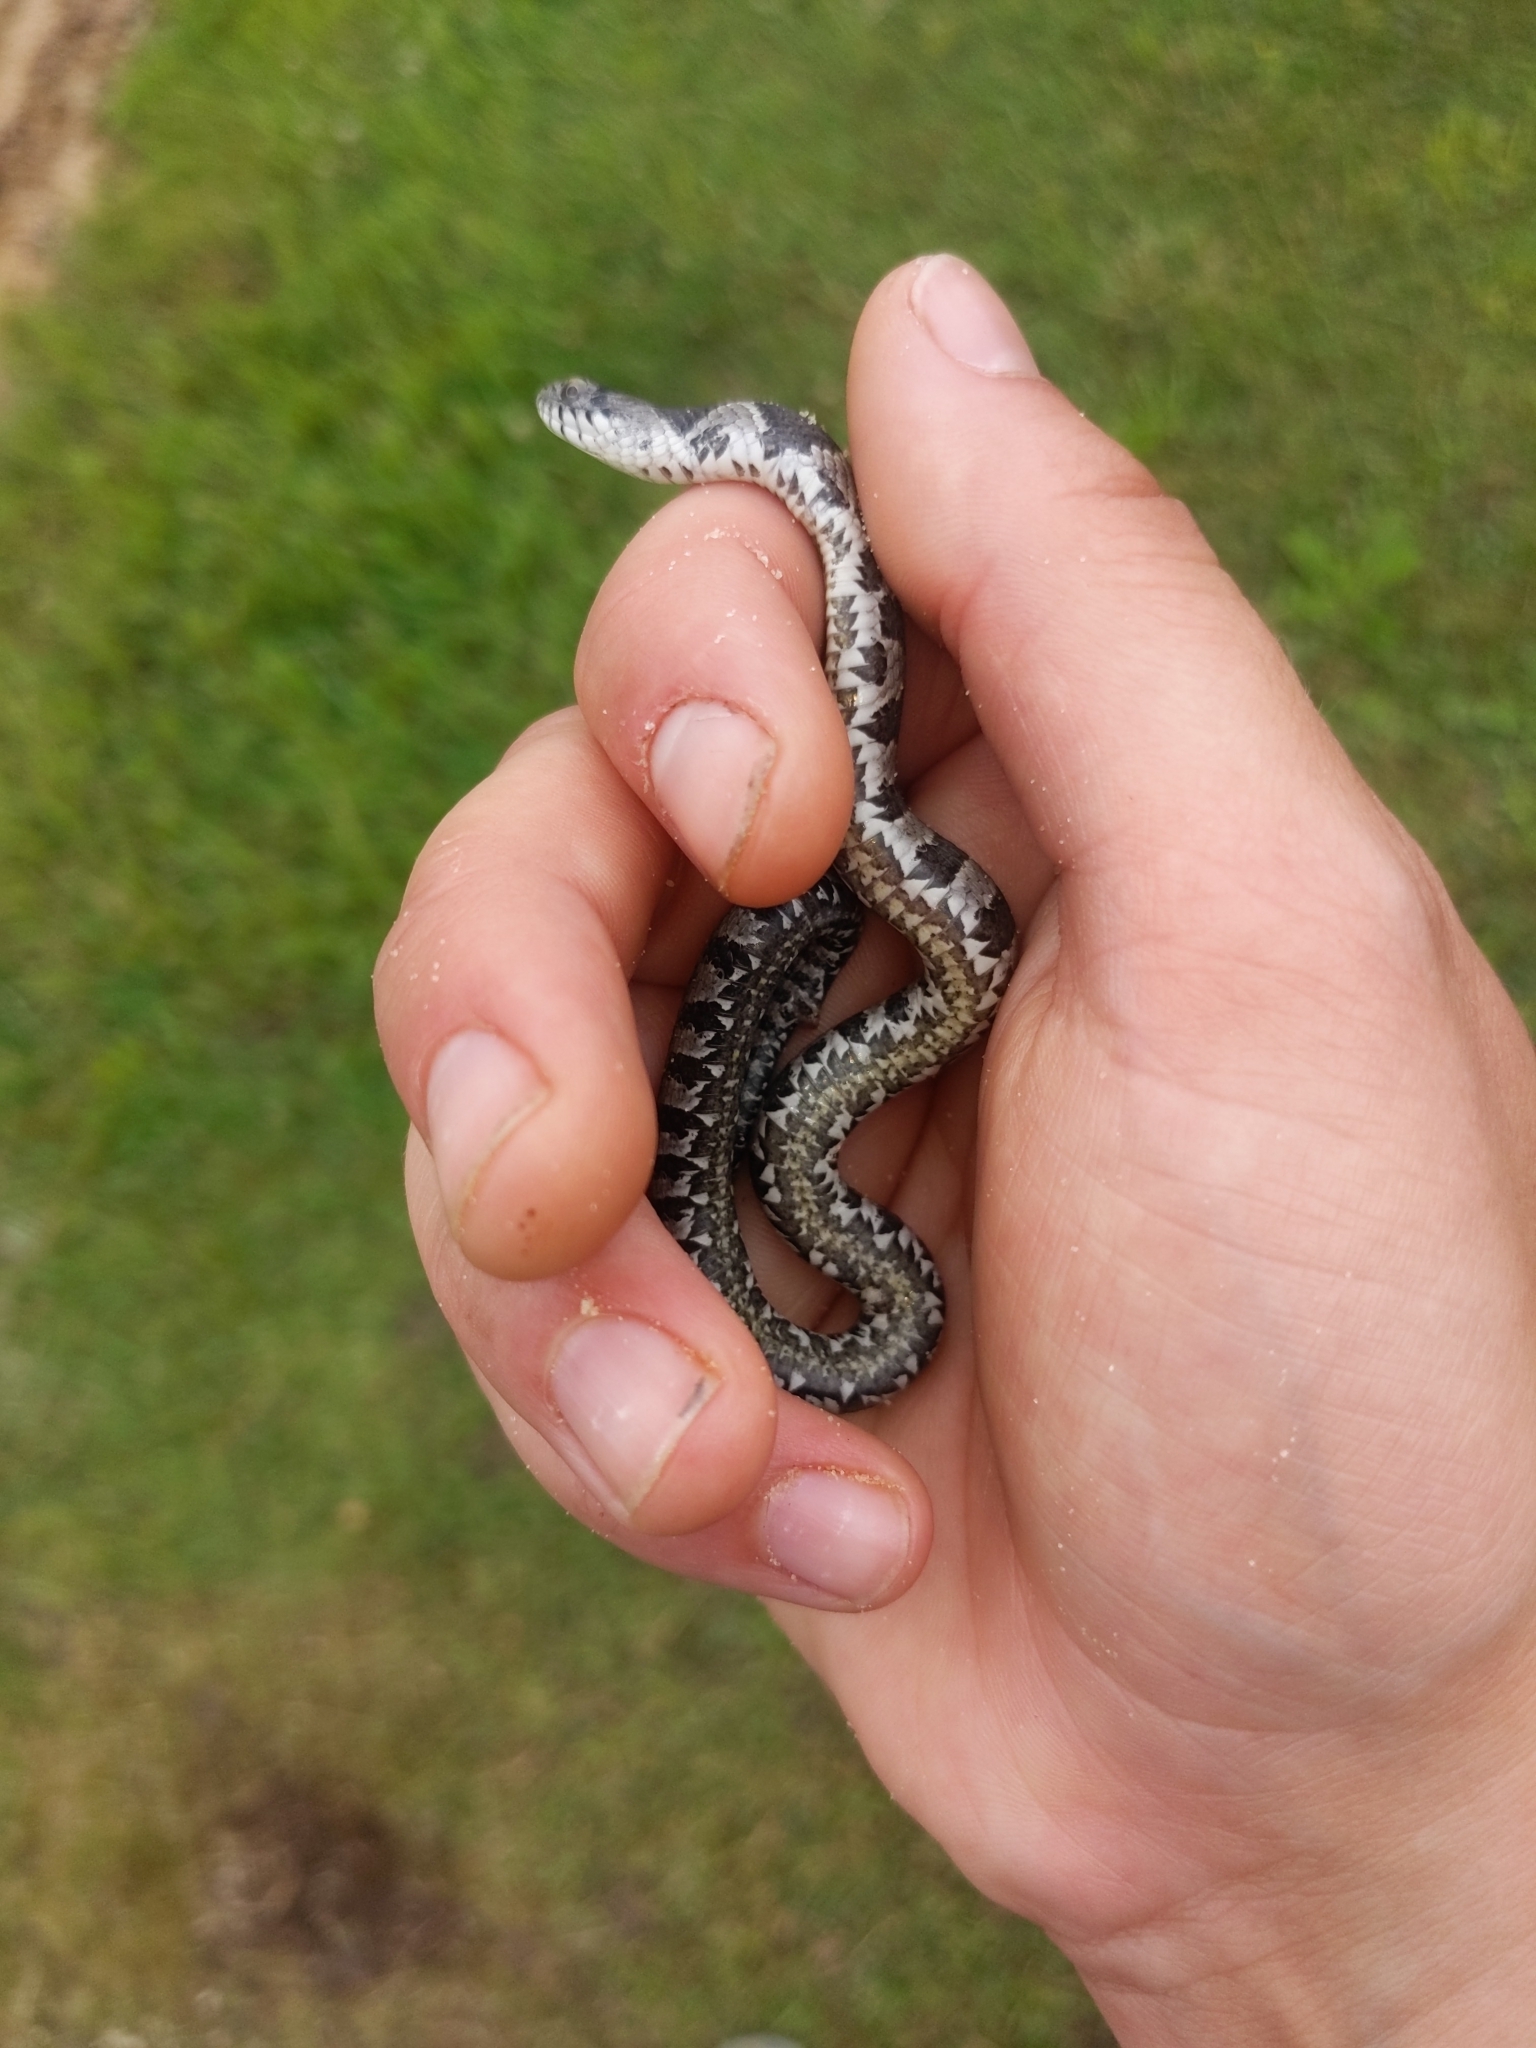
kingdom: Animalia
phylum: Chordata
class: Squamata
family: Colubridae
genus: Nerodia
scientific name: Nerodia sipedon
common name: Northern water snake
